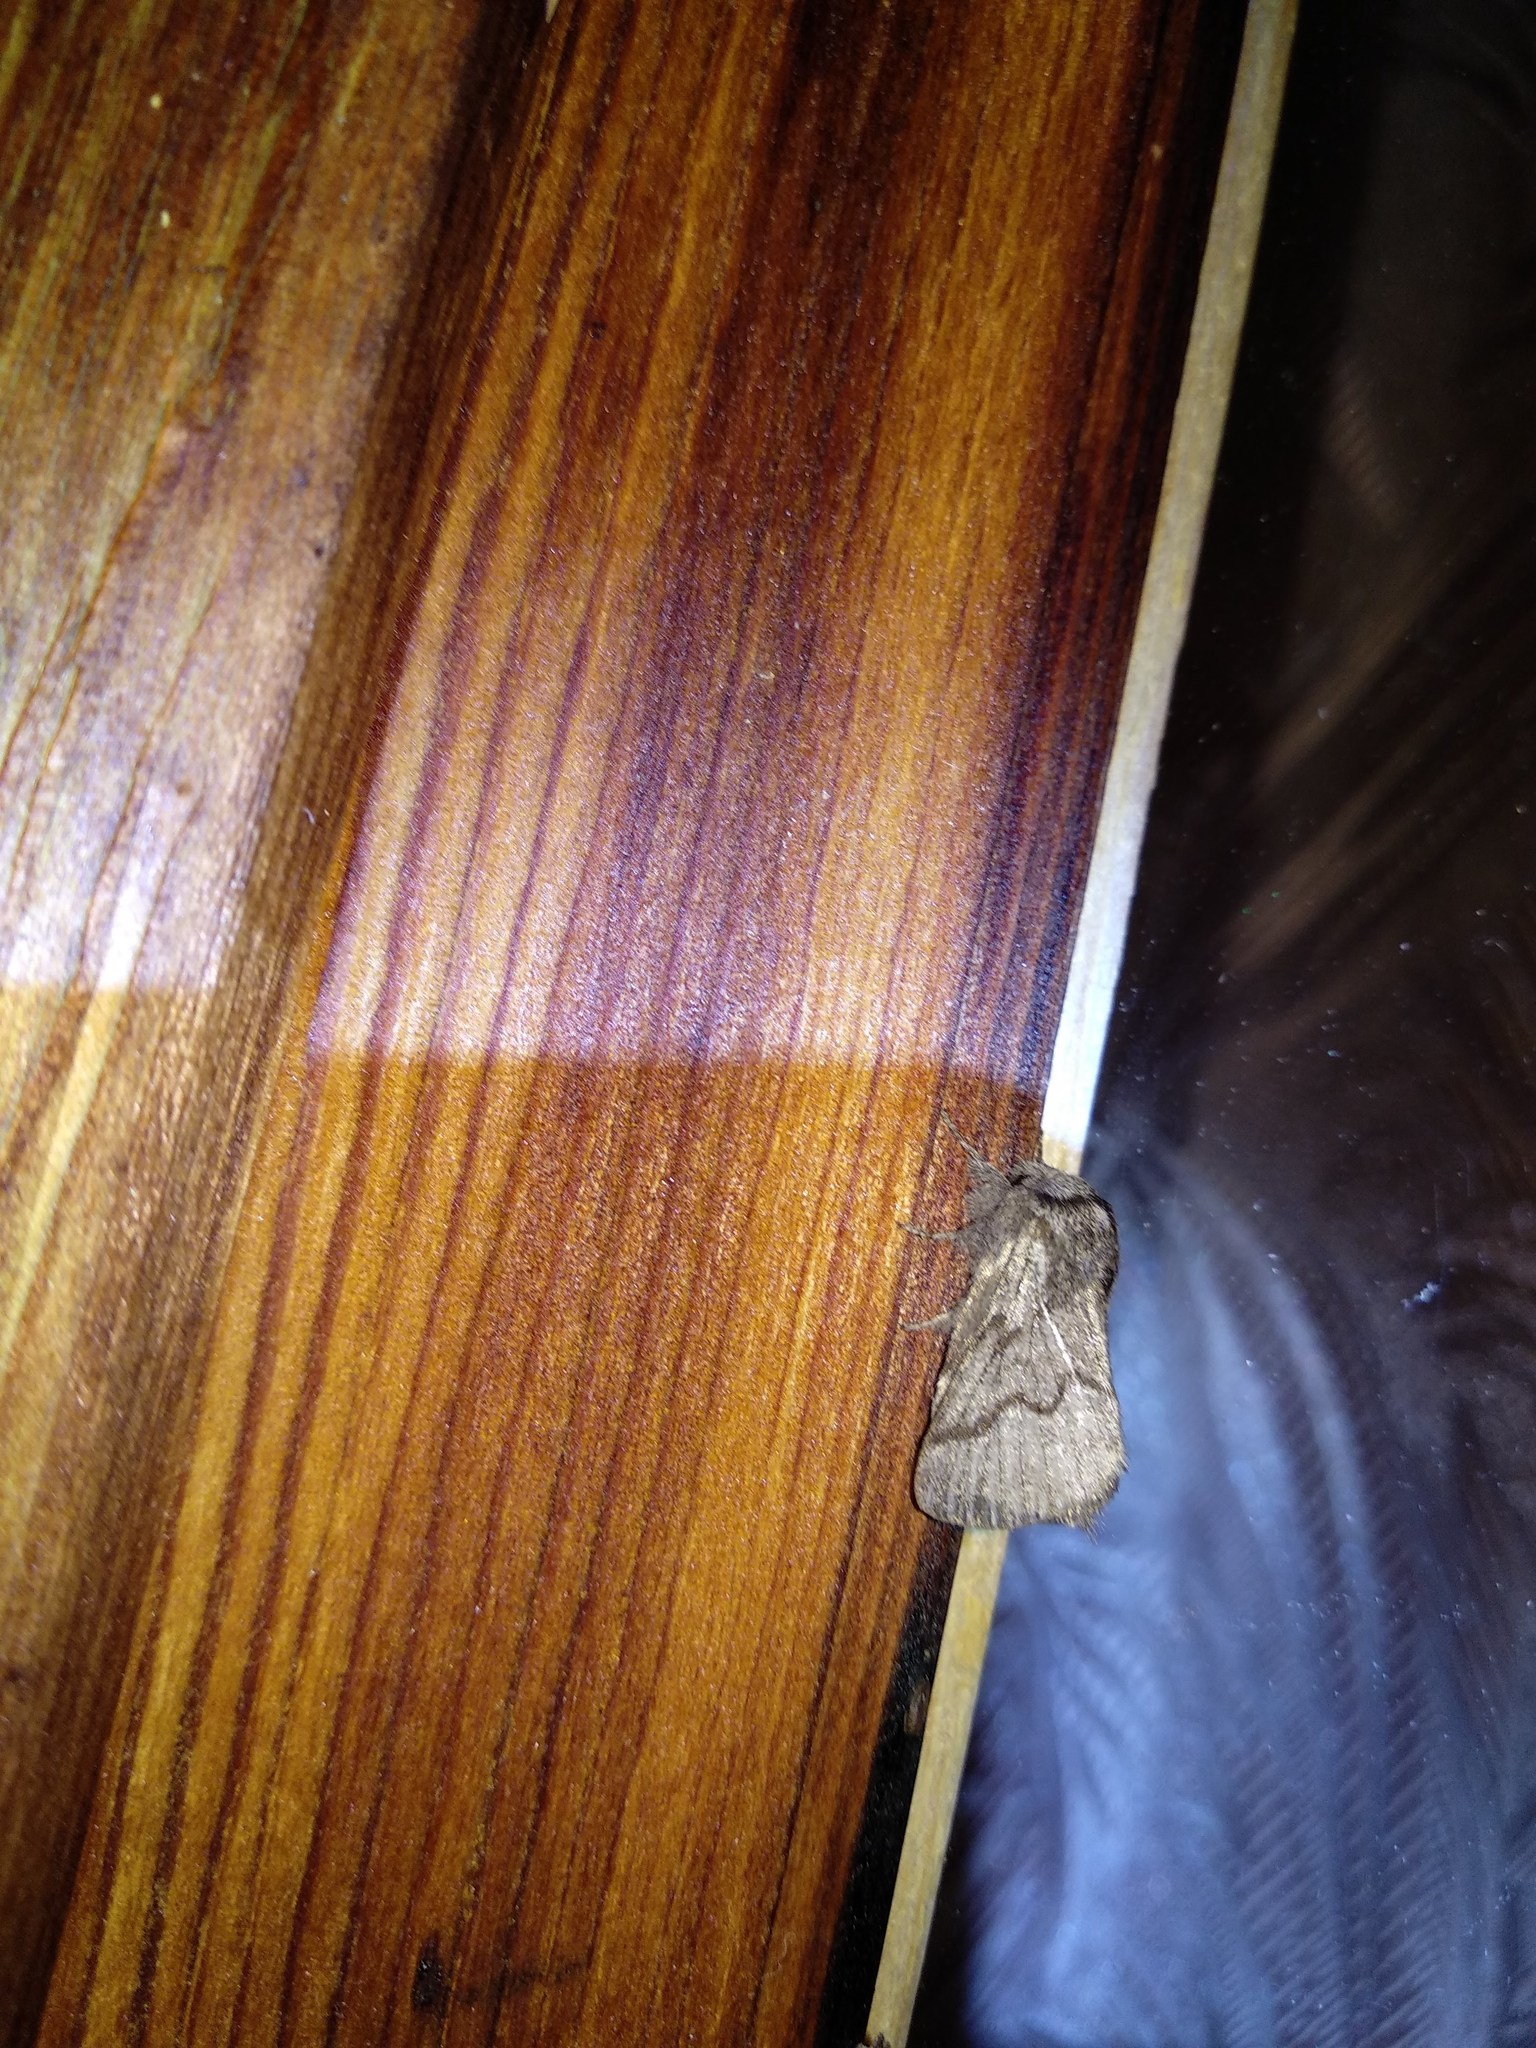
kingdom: Animalia
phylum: Arthropoda
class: Insecta
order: Lepidoptera
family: Lasiocampidae
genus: Trichiura
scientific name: Trichiura crataegi
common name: Pale eggar
